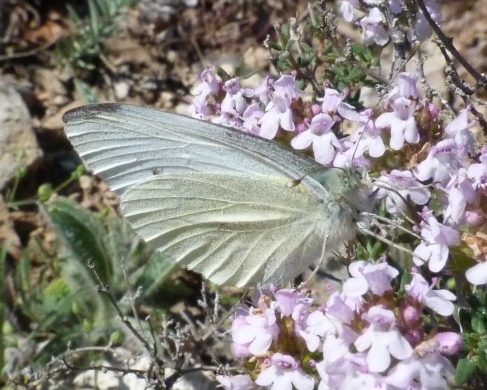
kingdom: Animalia
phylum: Arthropoda
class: Insecta
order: Lepidoptera
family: Pieridae
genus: Pieris
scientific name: Pieris rapae
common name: Small white
